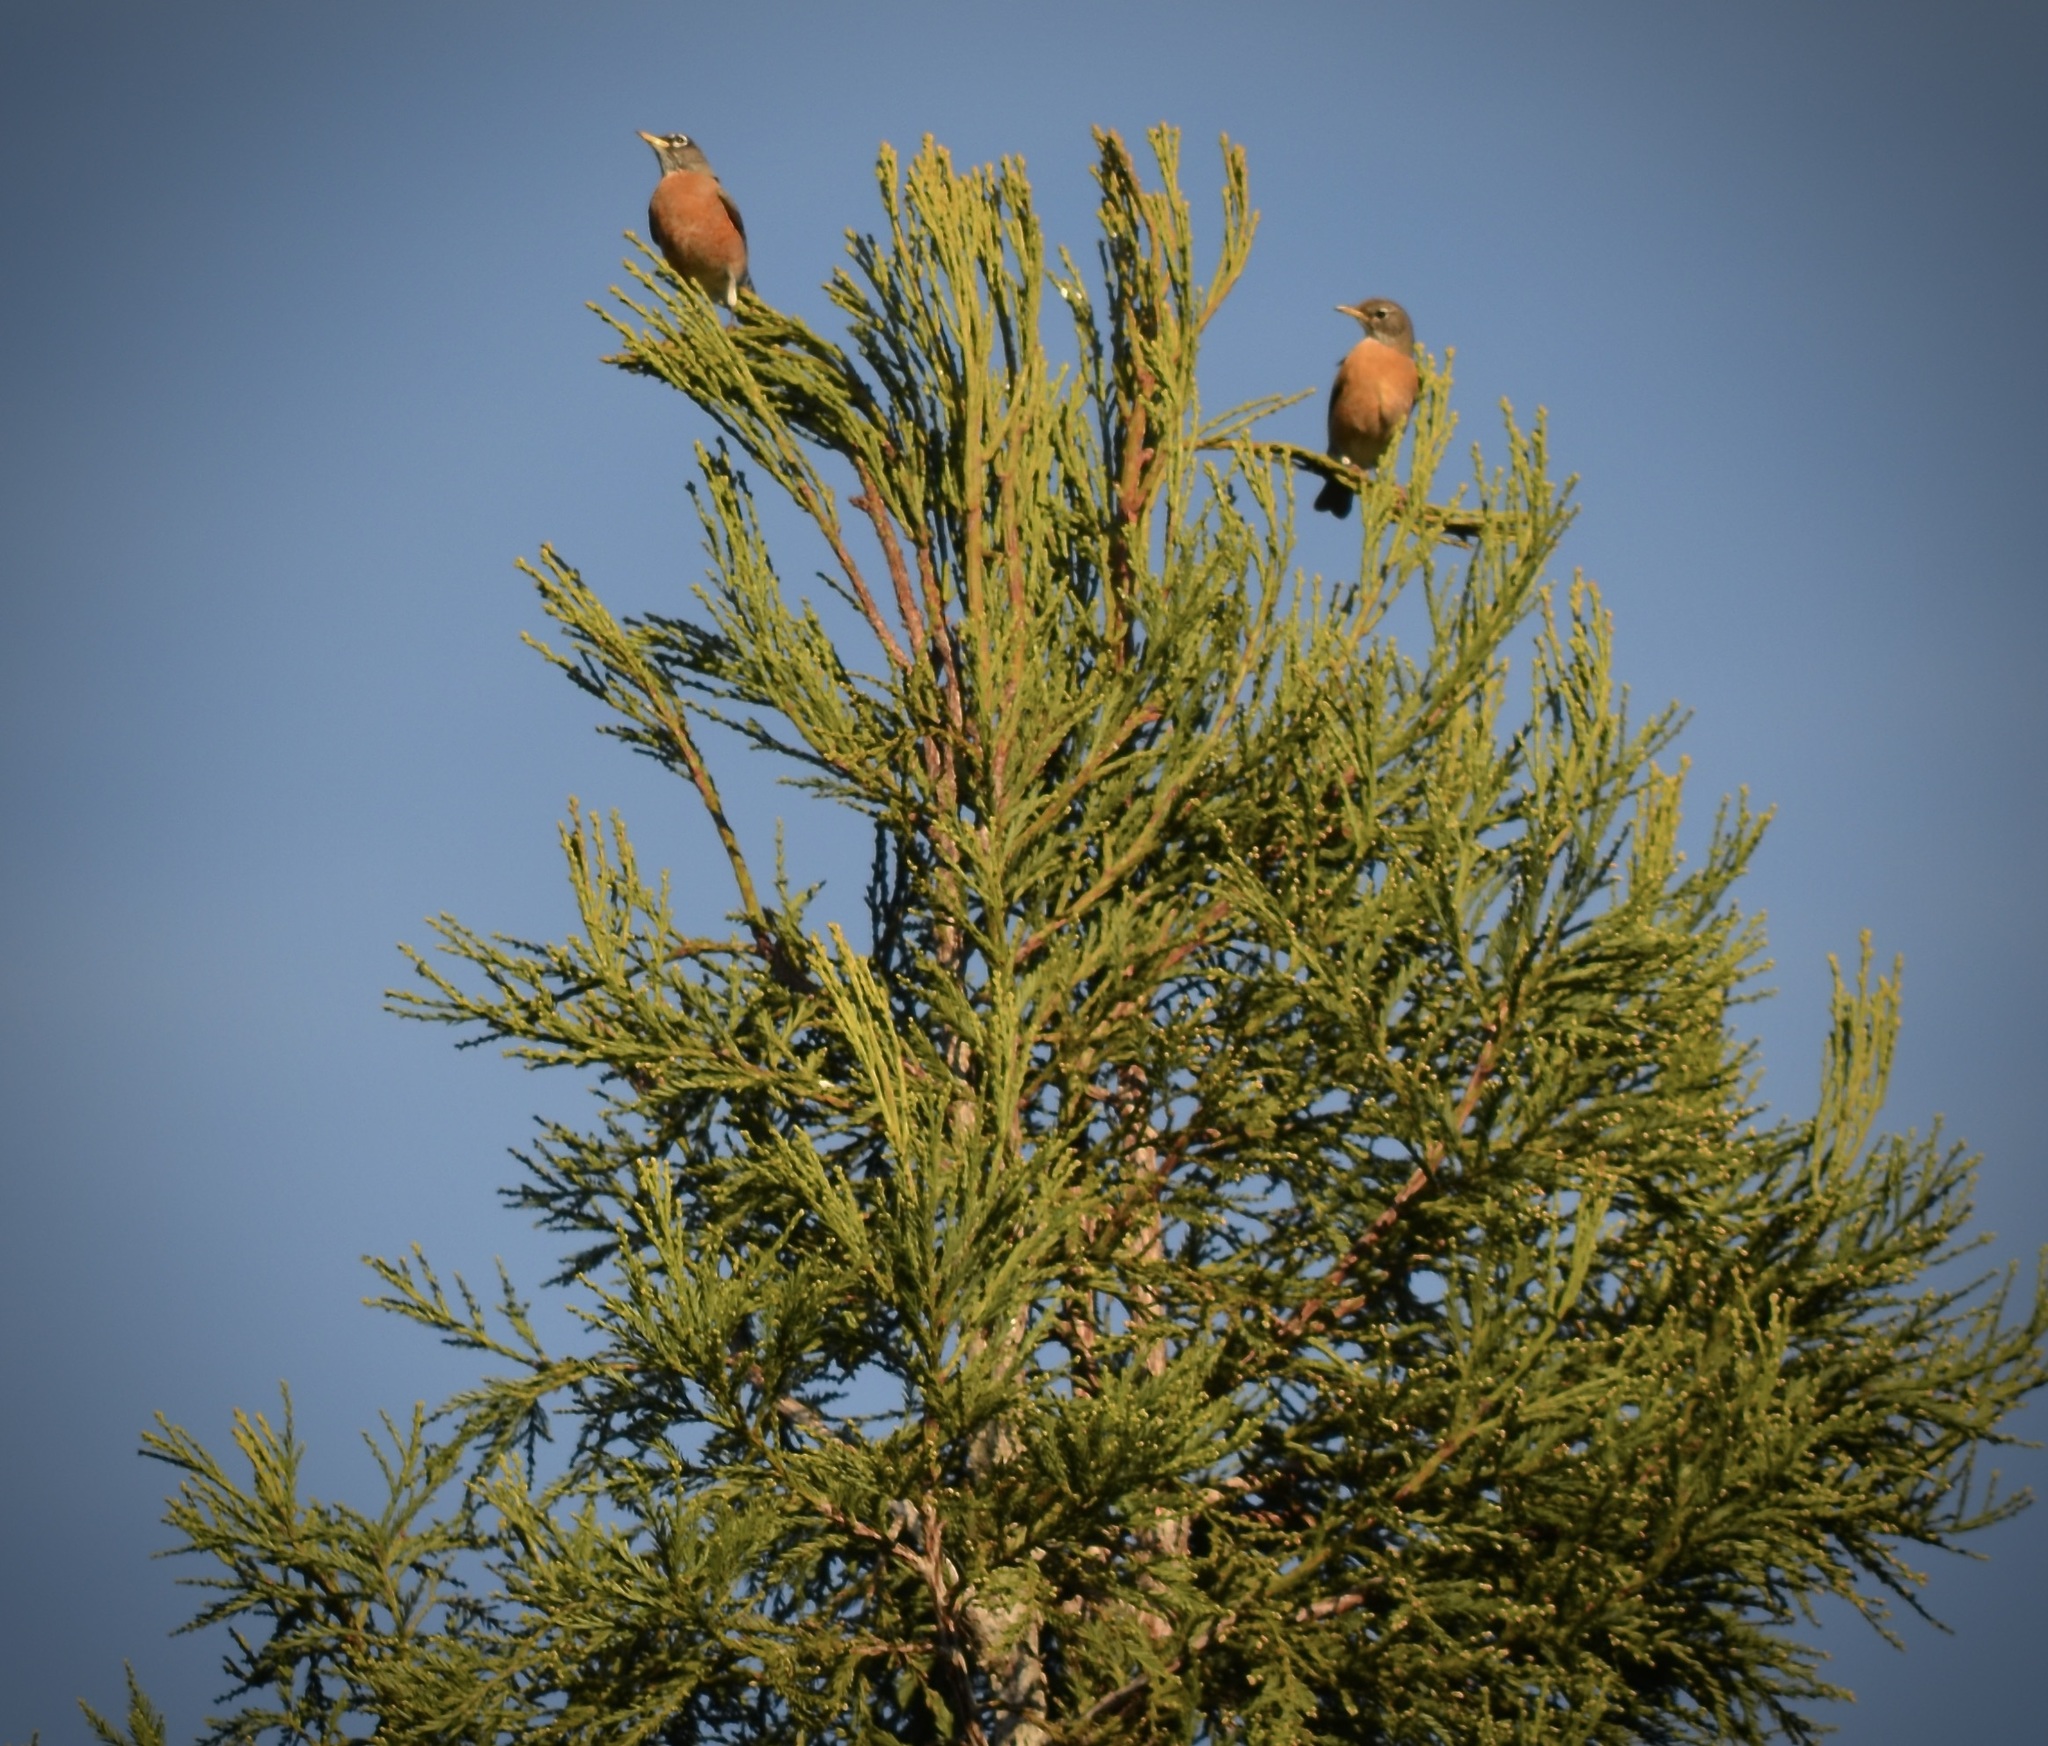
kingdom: Animalia
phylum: Chordata
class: Aves
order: Passeriformes
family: Turdidae
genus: Turdus
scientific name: Turdus migratorius
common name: American robin
